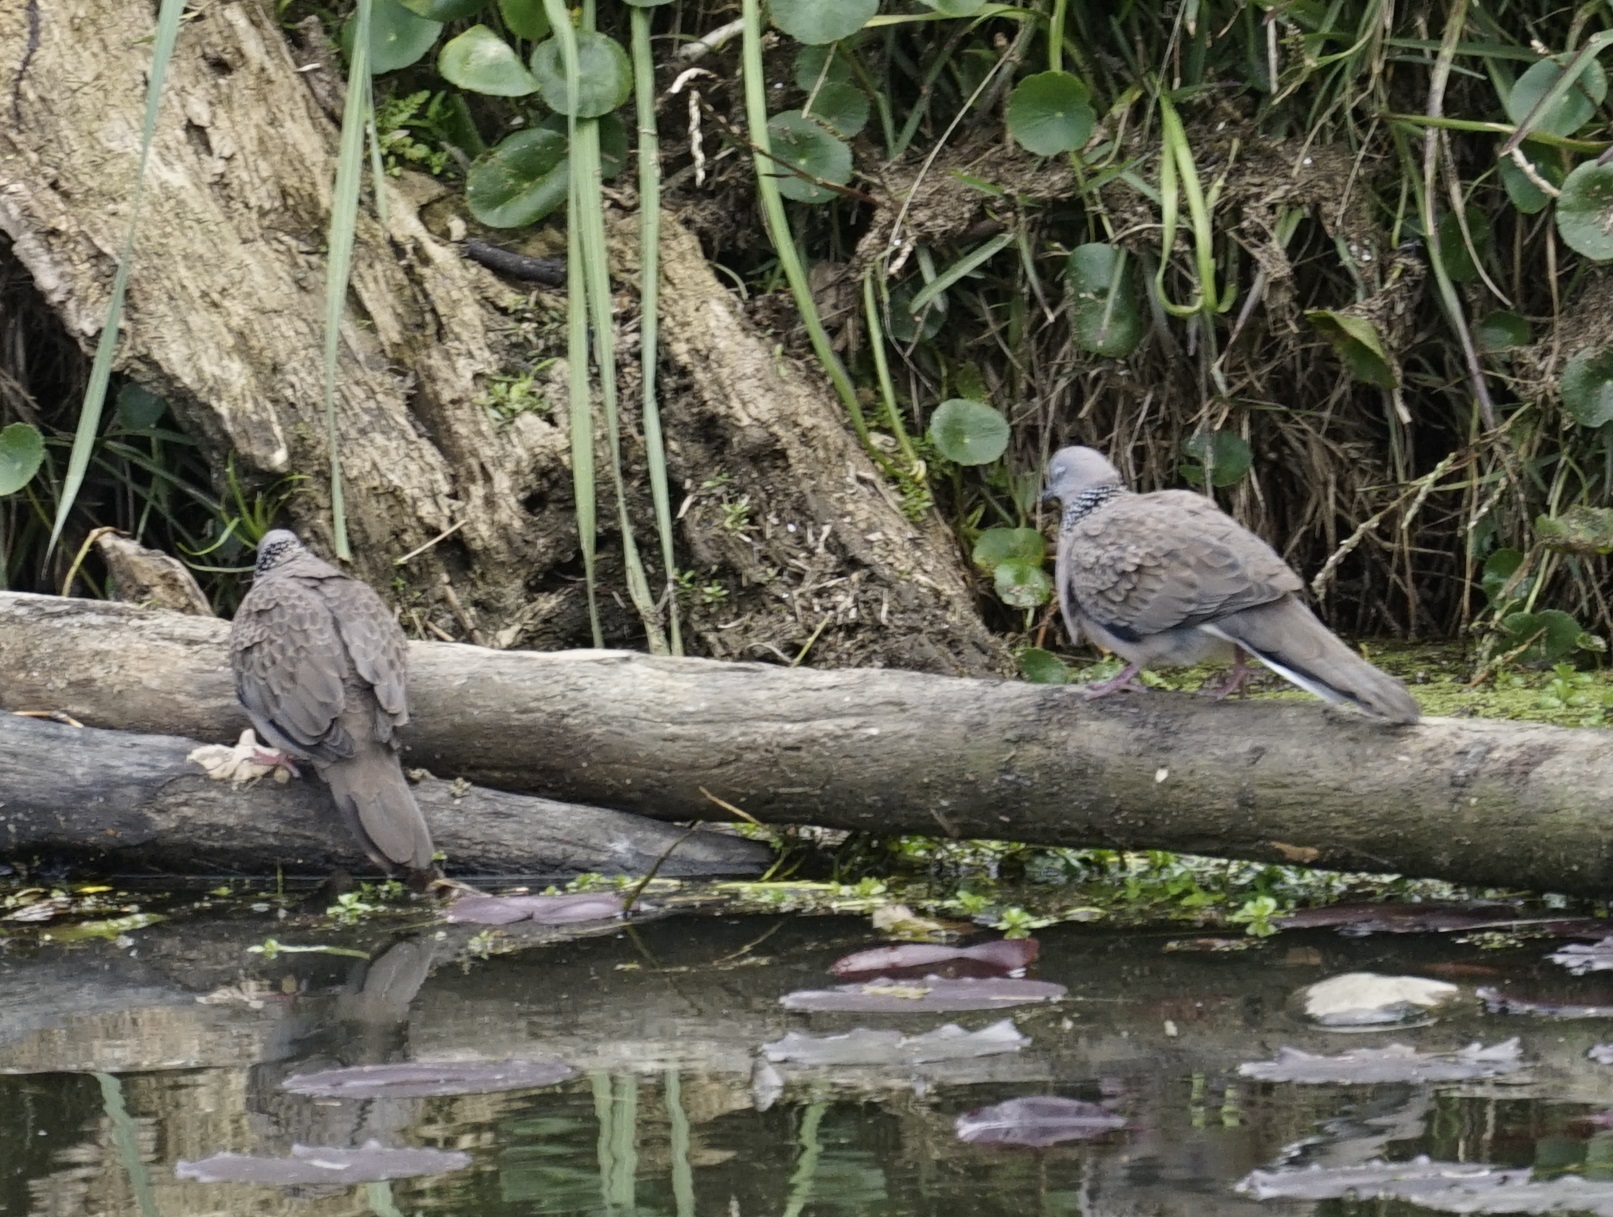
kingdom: Animalia
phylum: Chordata
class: Aves
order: Columbiformes
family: Columbidae
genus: Spilopelia
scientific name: Spilopelia chinensis
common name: Spotted dove
